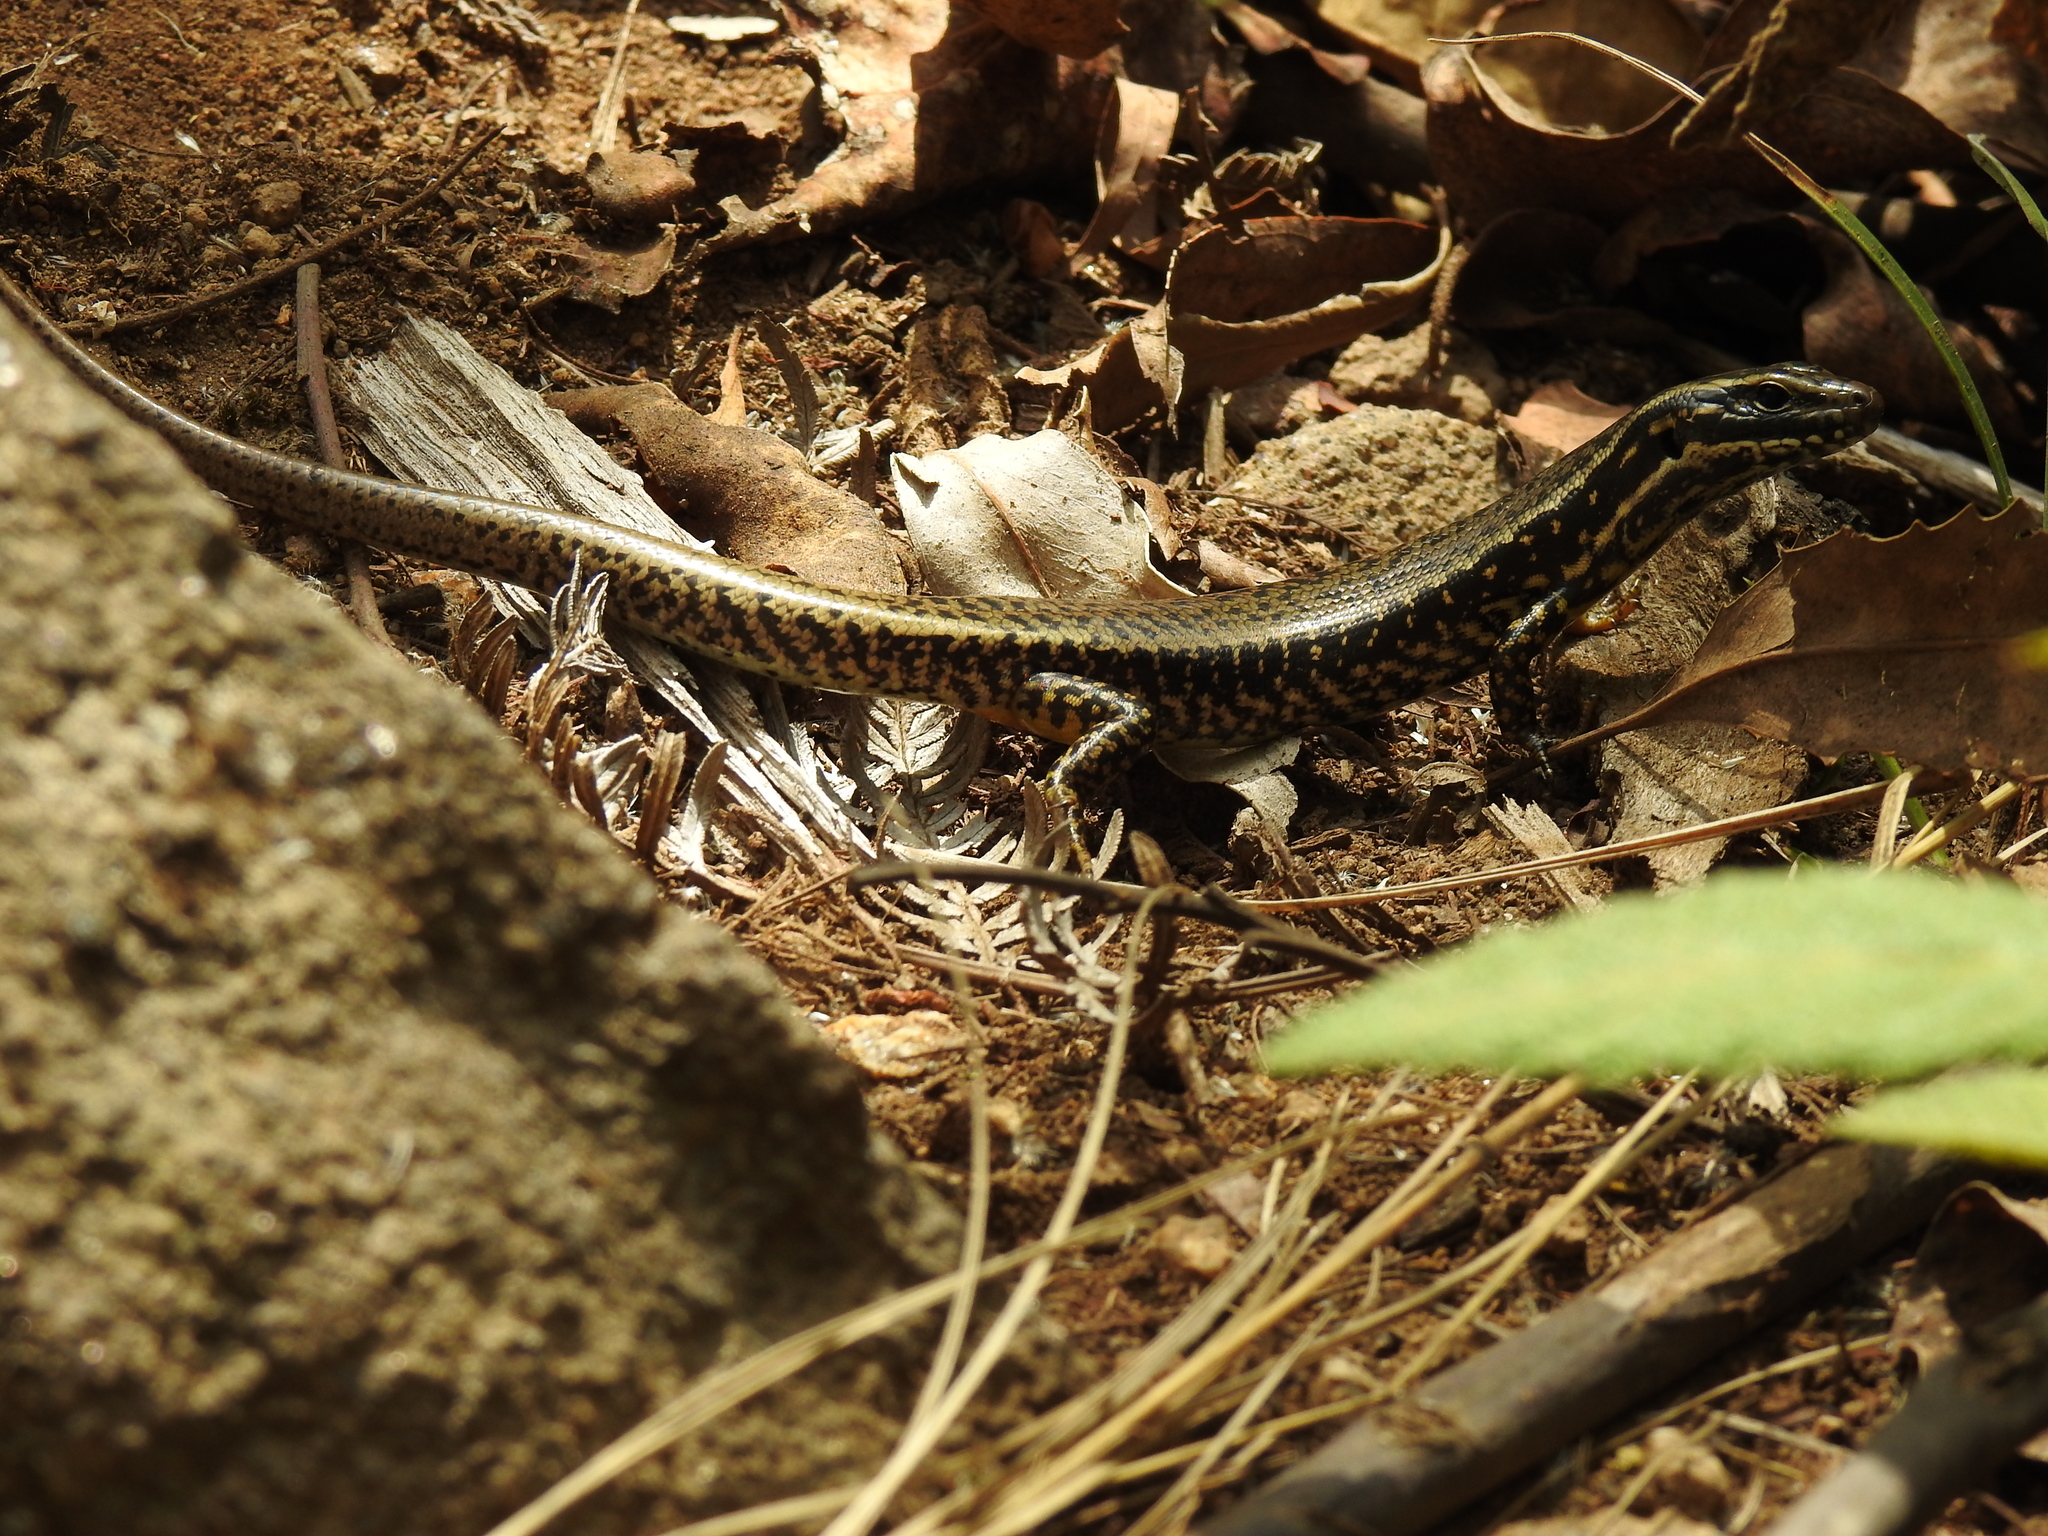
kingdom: Animalia
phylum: Chordata
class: Squamata
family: Scincidae
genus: Eulamprus
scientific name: Eulamprus heatwolei
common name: Warm-temperate water-skink
